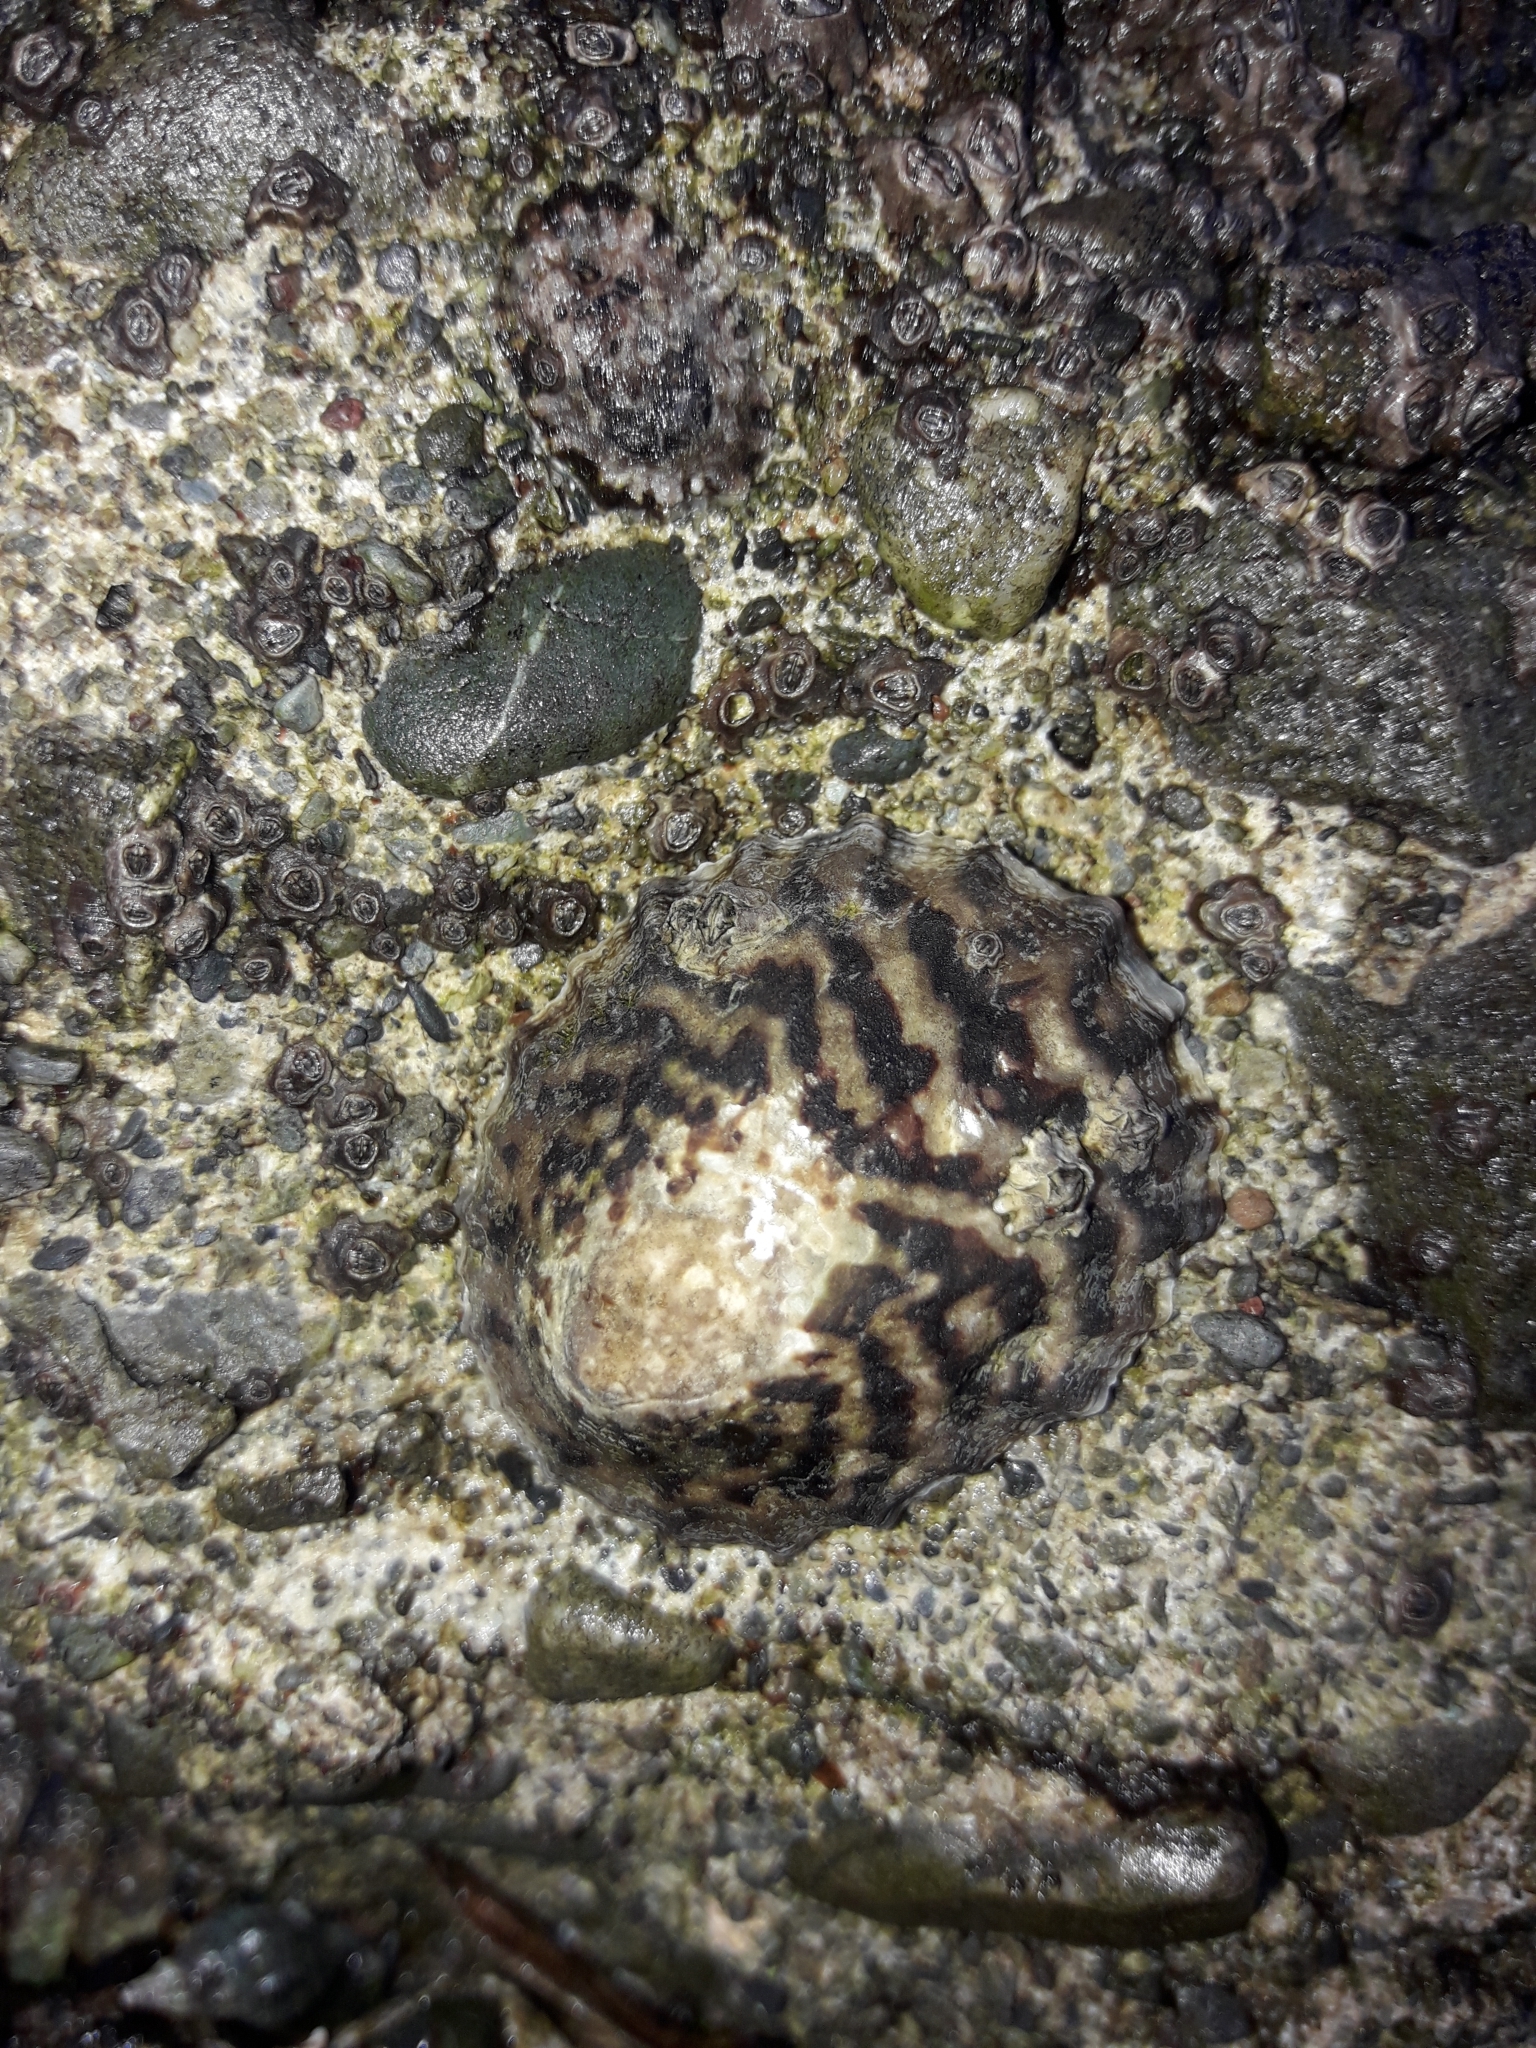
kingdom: Animalia
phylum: Mollusca
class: Gastropoda
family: Nacellidae
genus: Cellana
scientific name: Cellana radians
